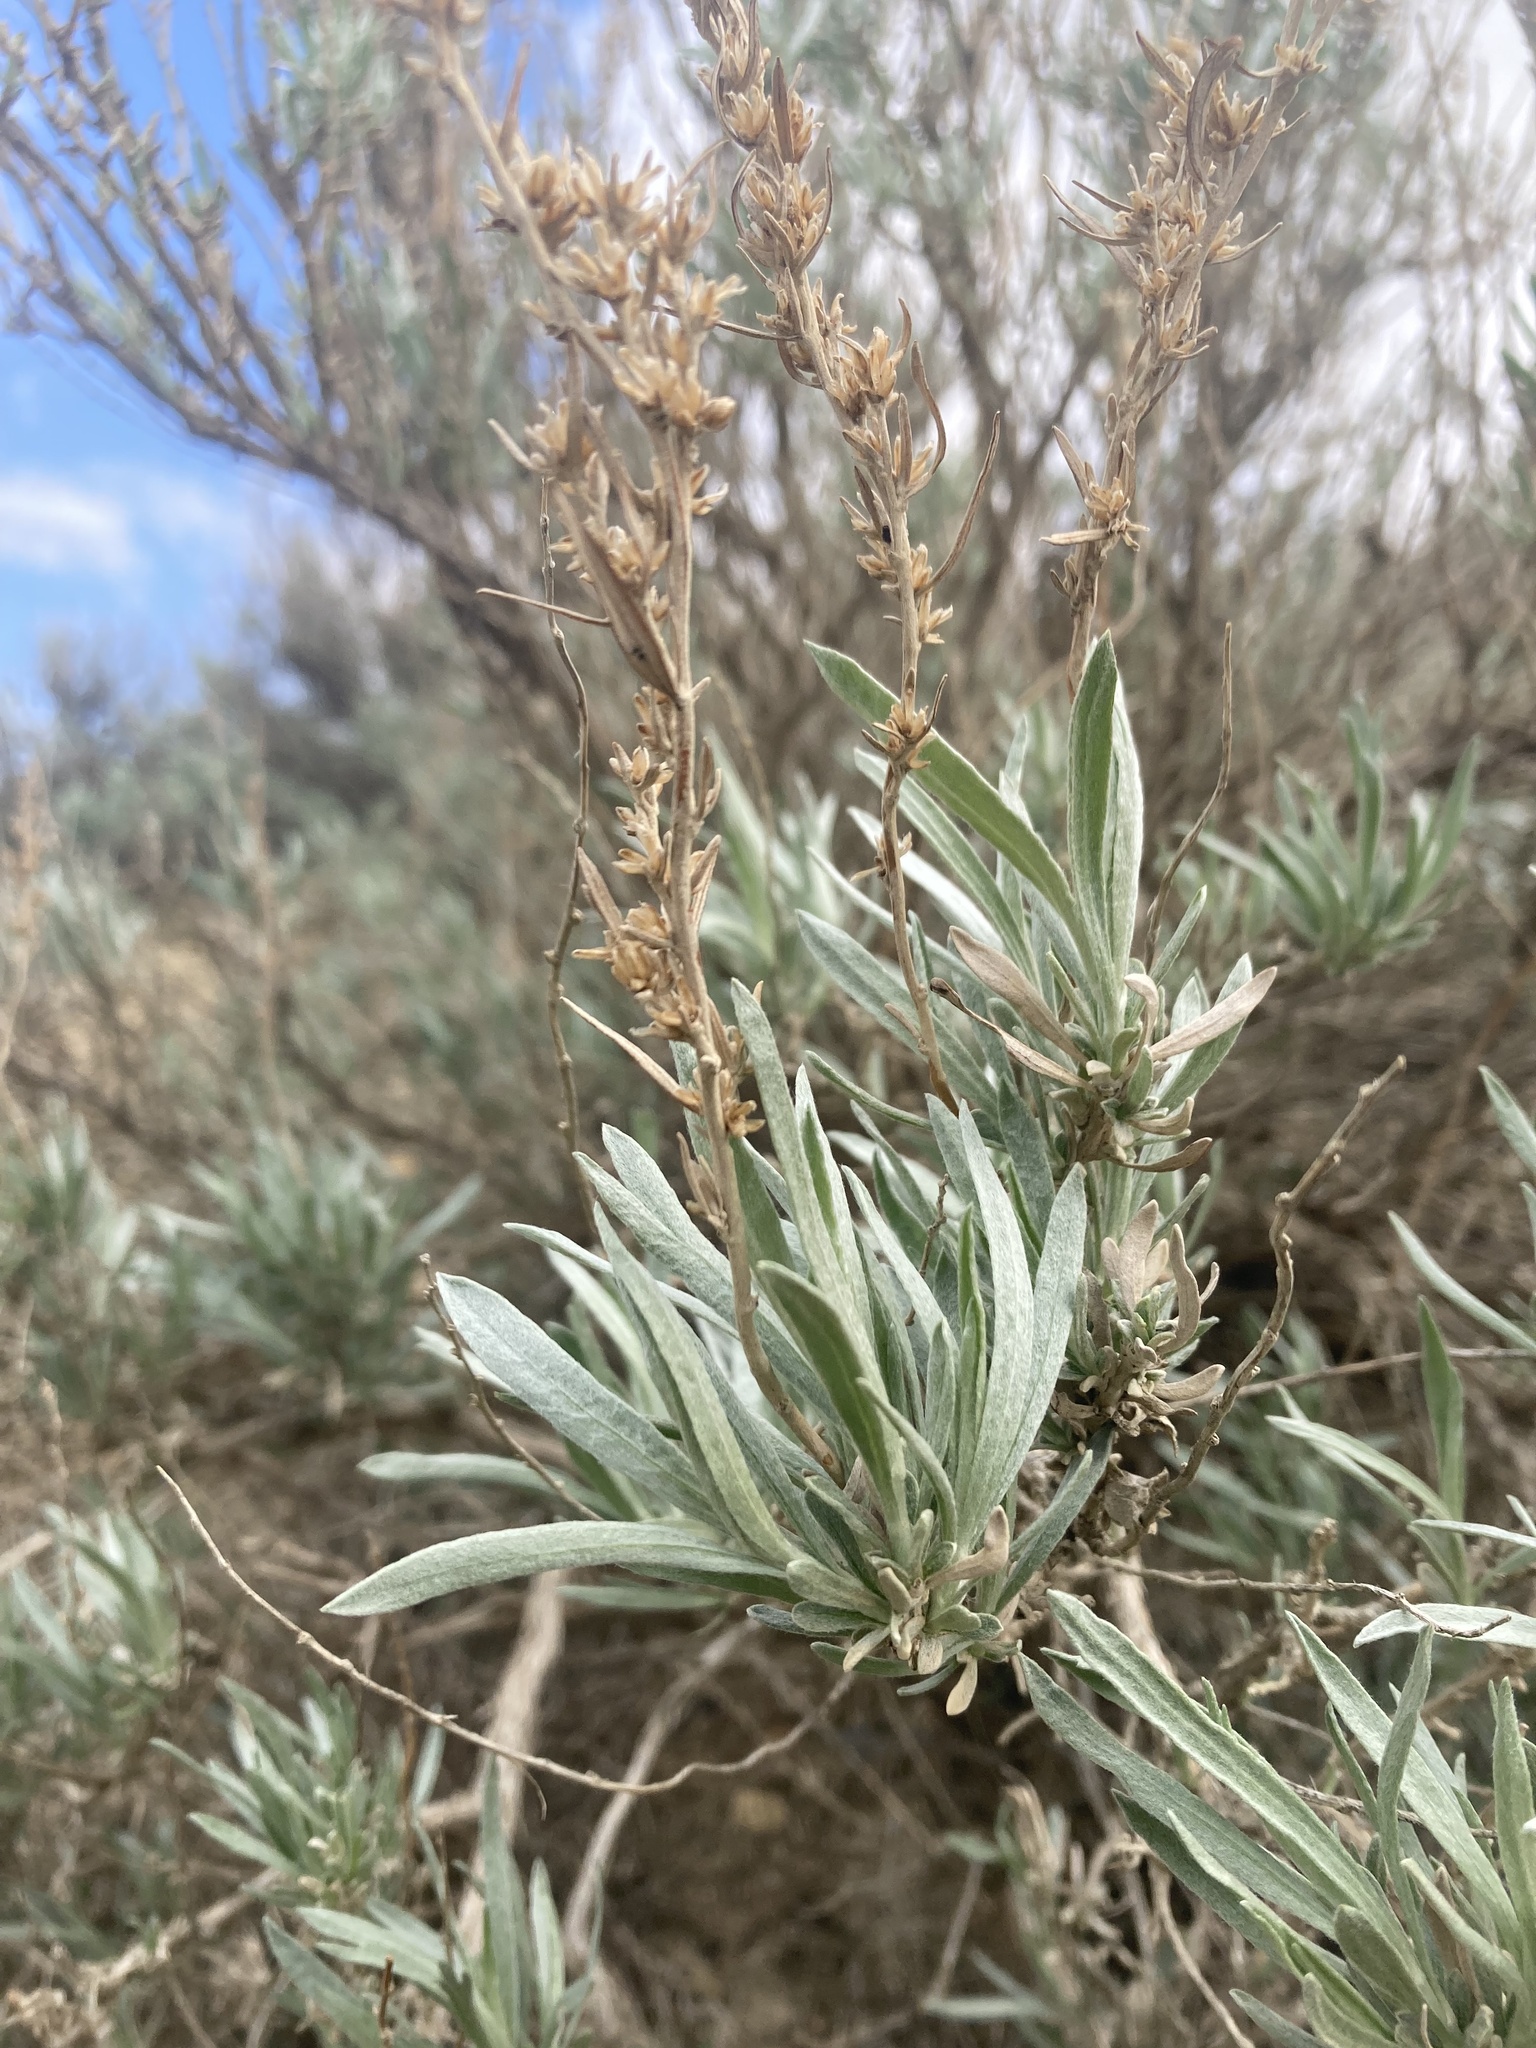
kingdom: Plantae
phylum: Tracheophyta
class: Magnoliopsida
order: Asterales
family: Asteraceae
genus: Artemisia
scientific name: Artemisia cana
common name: Silver sagebrush
